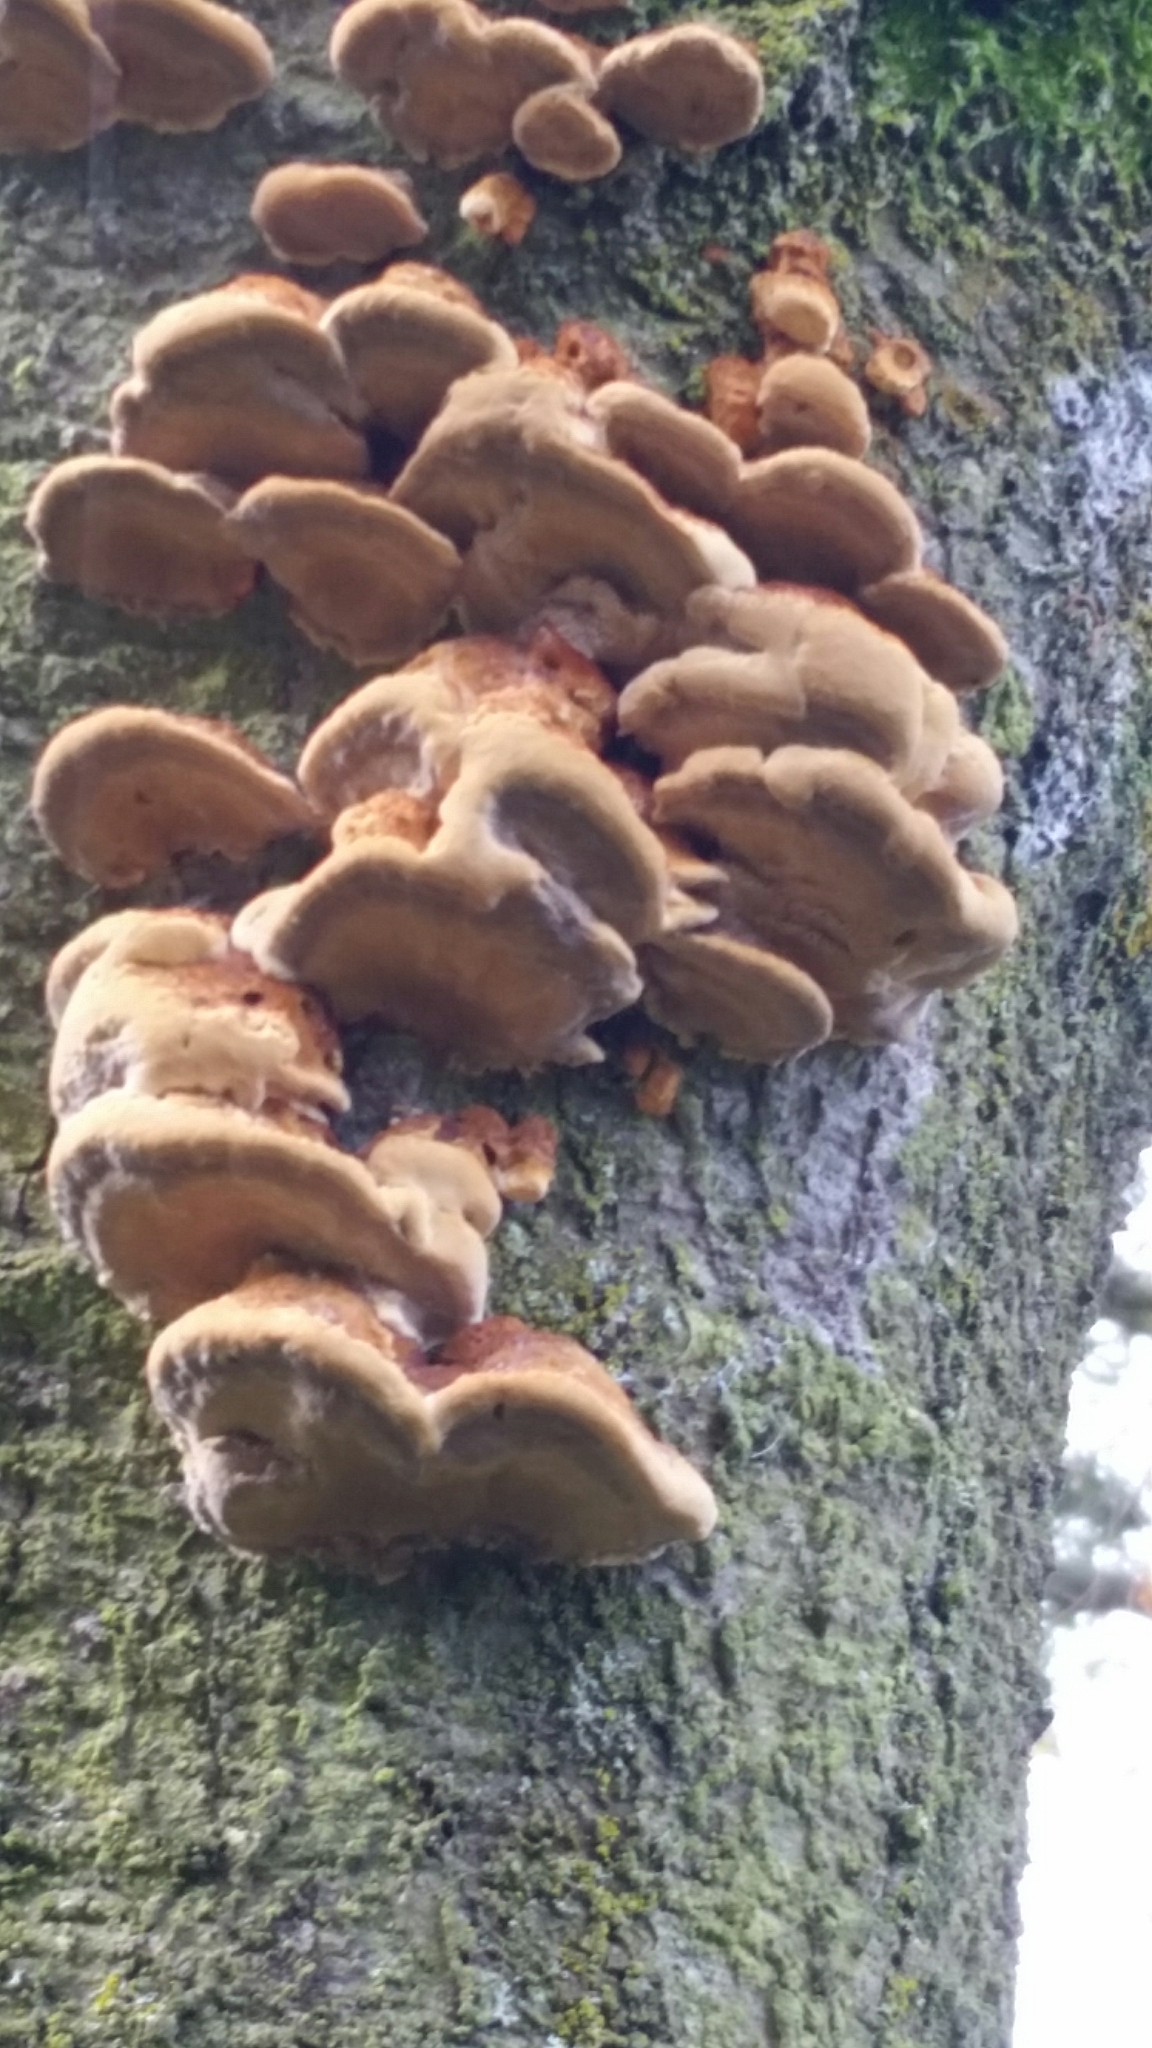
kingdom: Fungi
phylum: Basidiomycota
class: Agaricomycetes
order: Polyporales
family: Polyporaceae
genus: Ganoderma
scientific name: Ganoderma applanatum
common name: Artist's bracket
